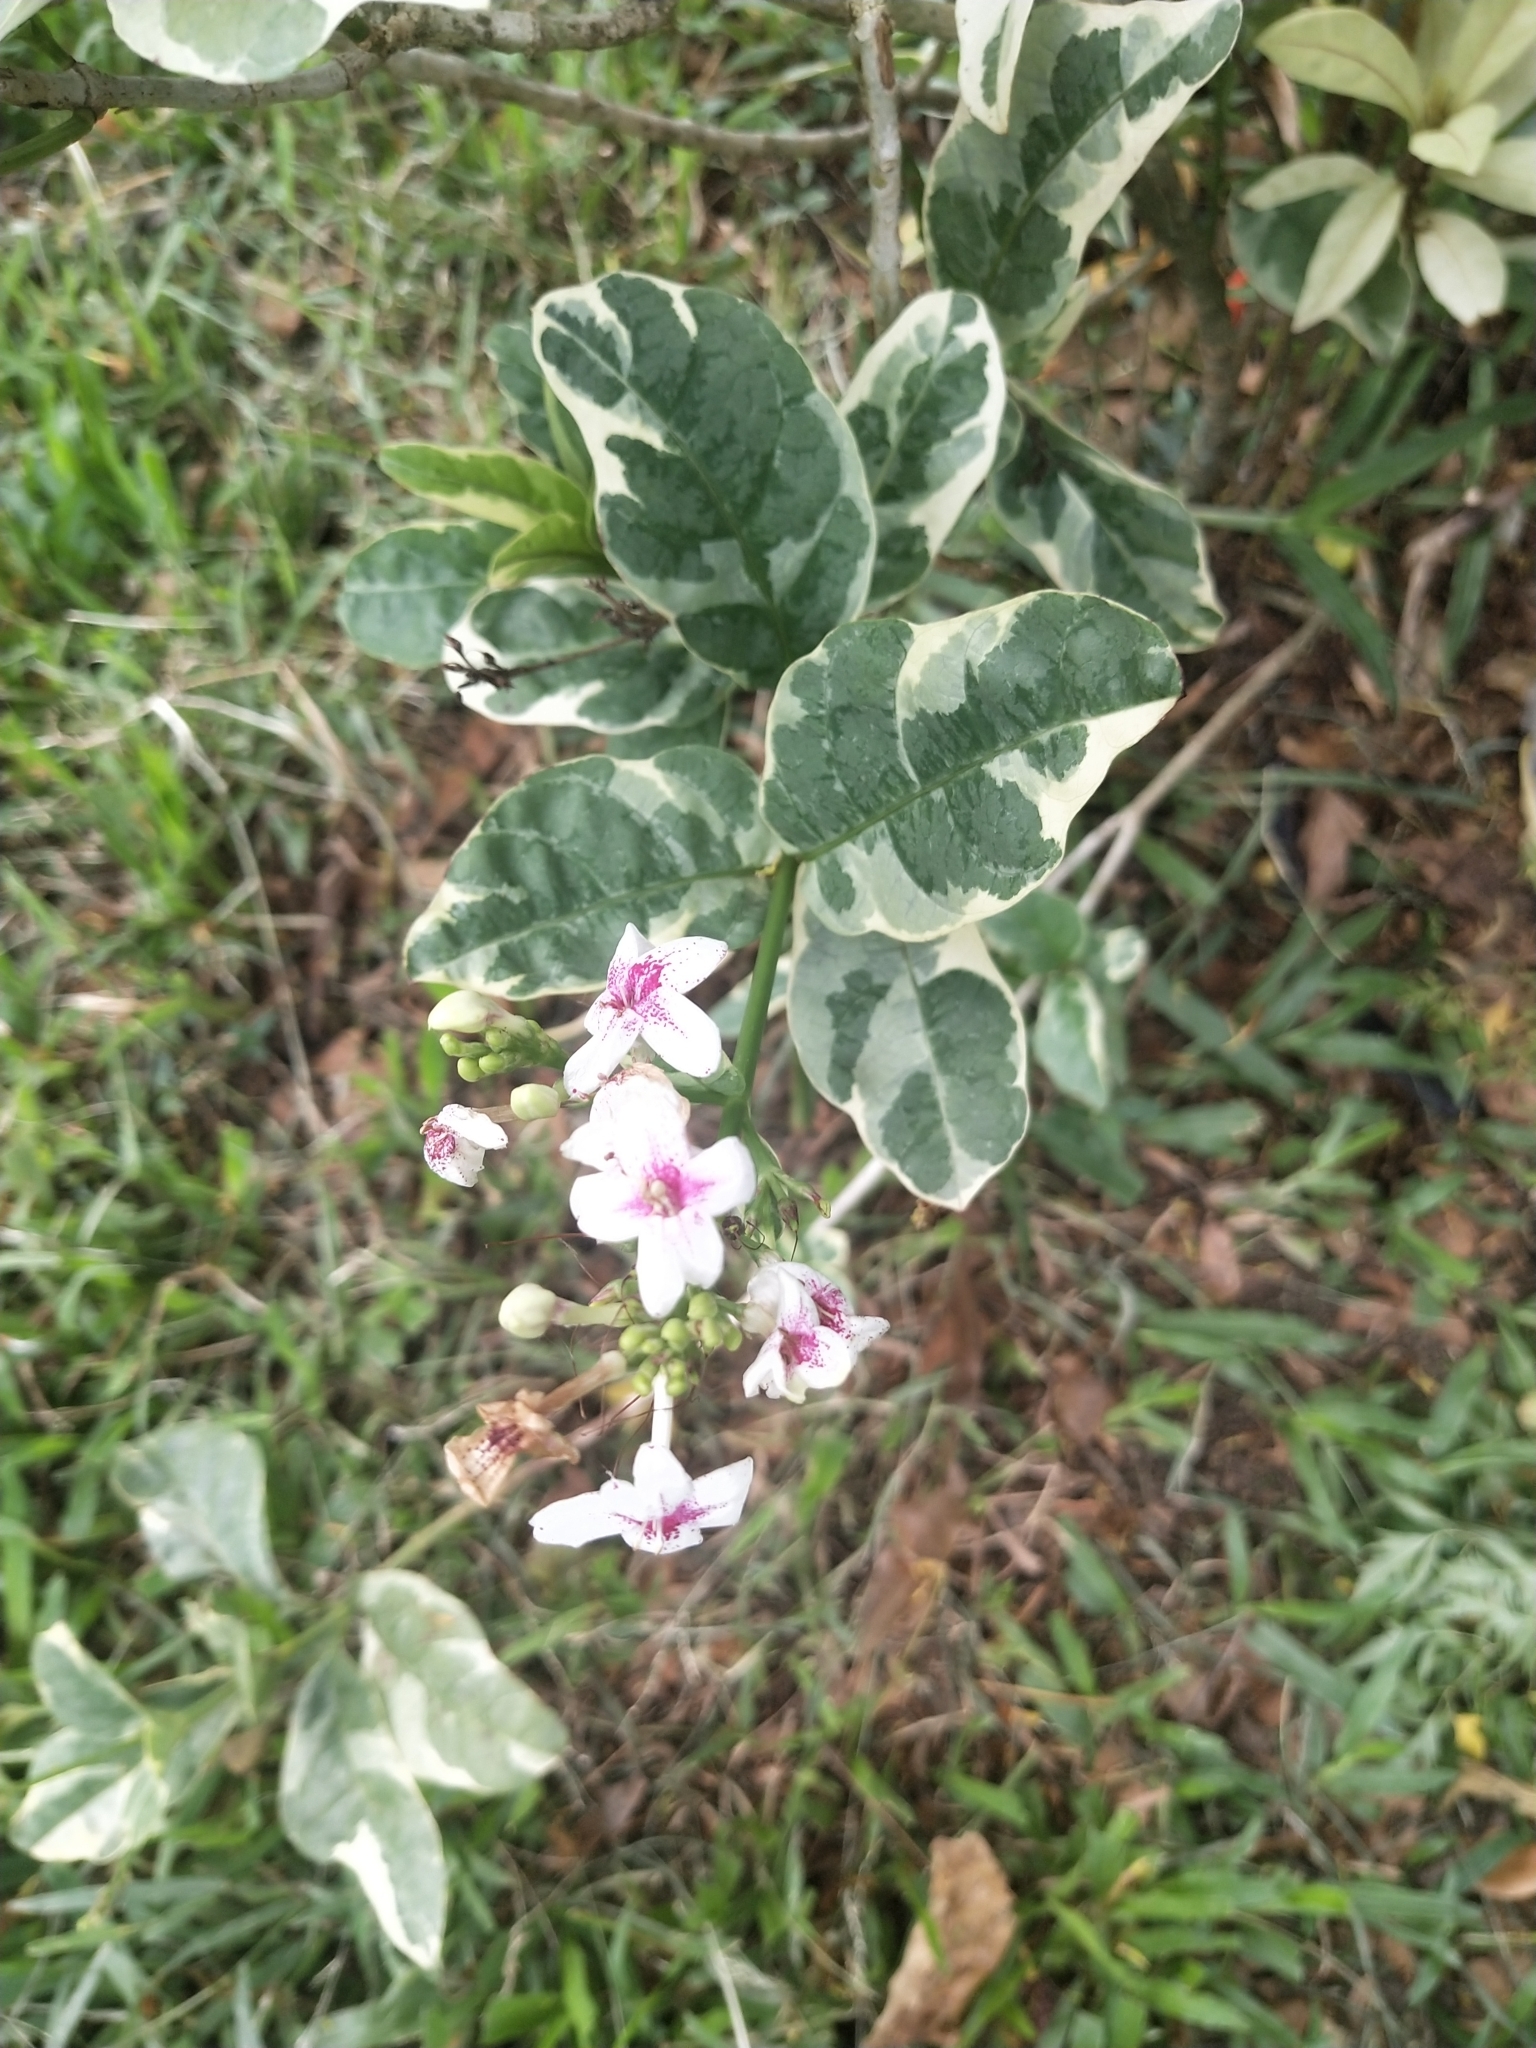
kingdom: Plantae
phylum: Tracheophyta
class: Magnoliopsida
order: Lamiales
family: Acanthaceae
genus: Pseuderanthemum
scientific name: Pseuderanthemum maculatum
